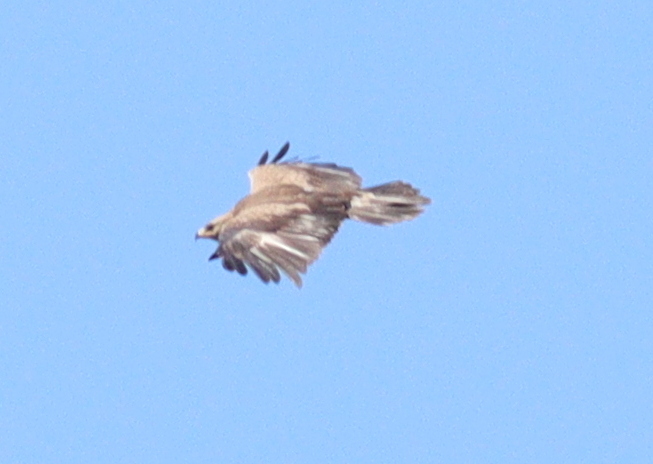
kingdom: Animalia
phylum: Chordata
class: Aves
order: Accipitriformes
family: Accipitridae
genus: Aquila
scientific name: Aquila pomarina
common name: Lesser spotted eagle
